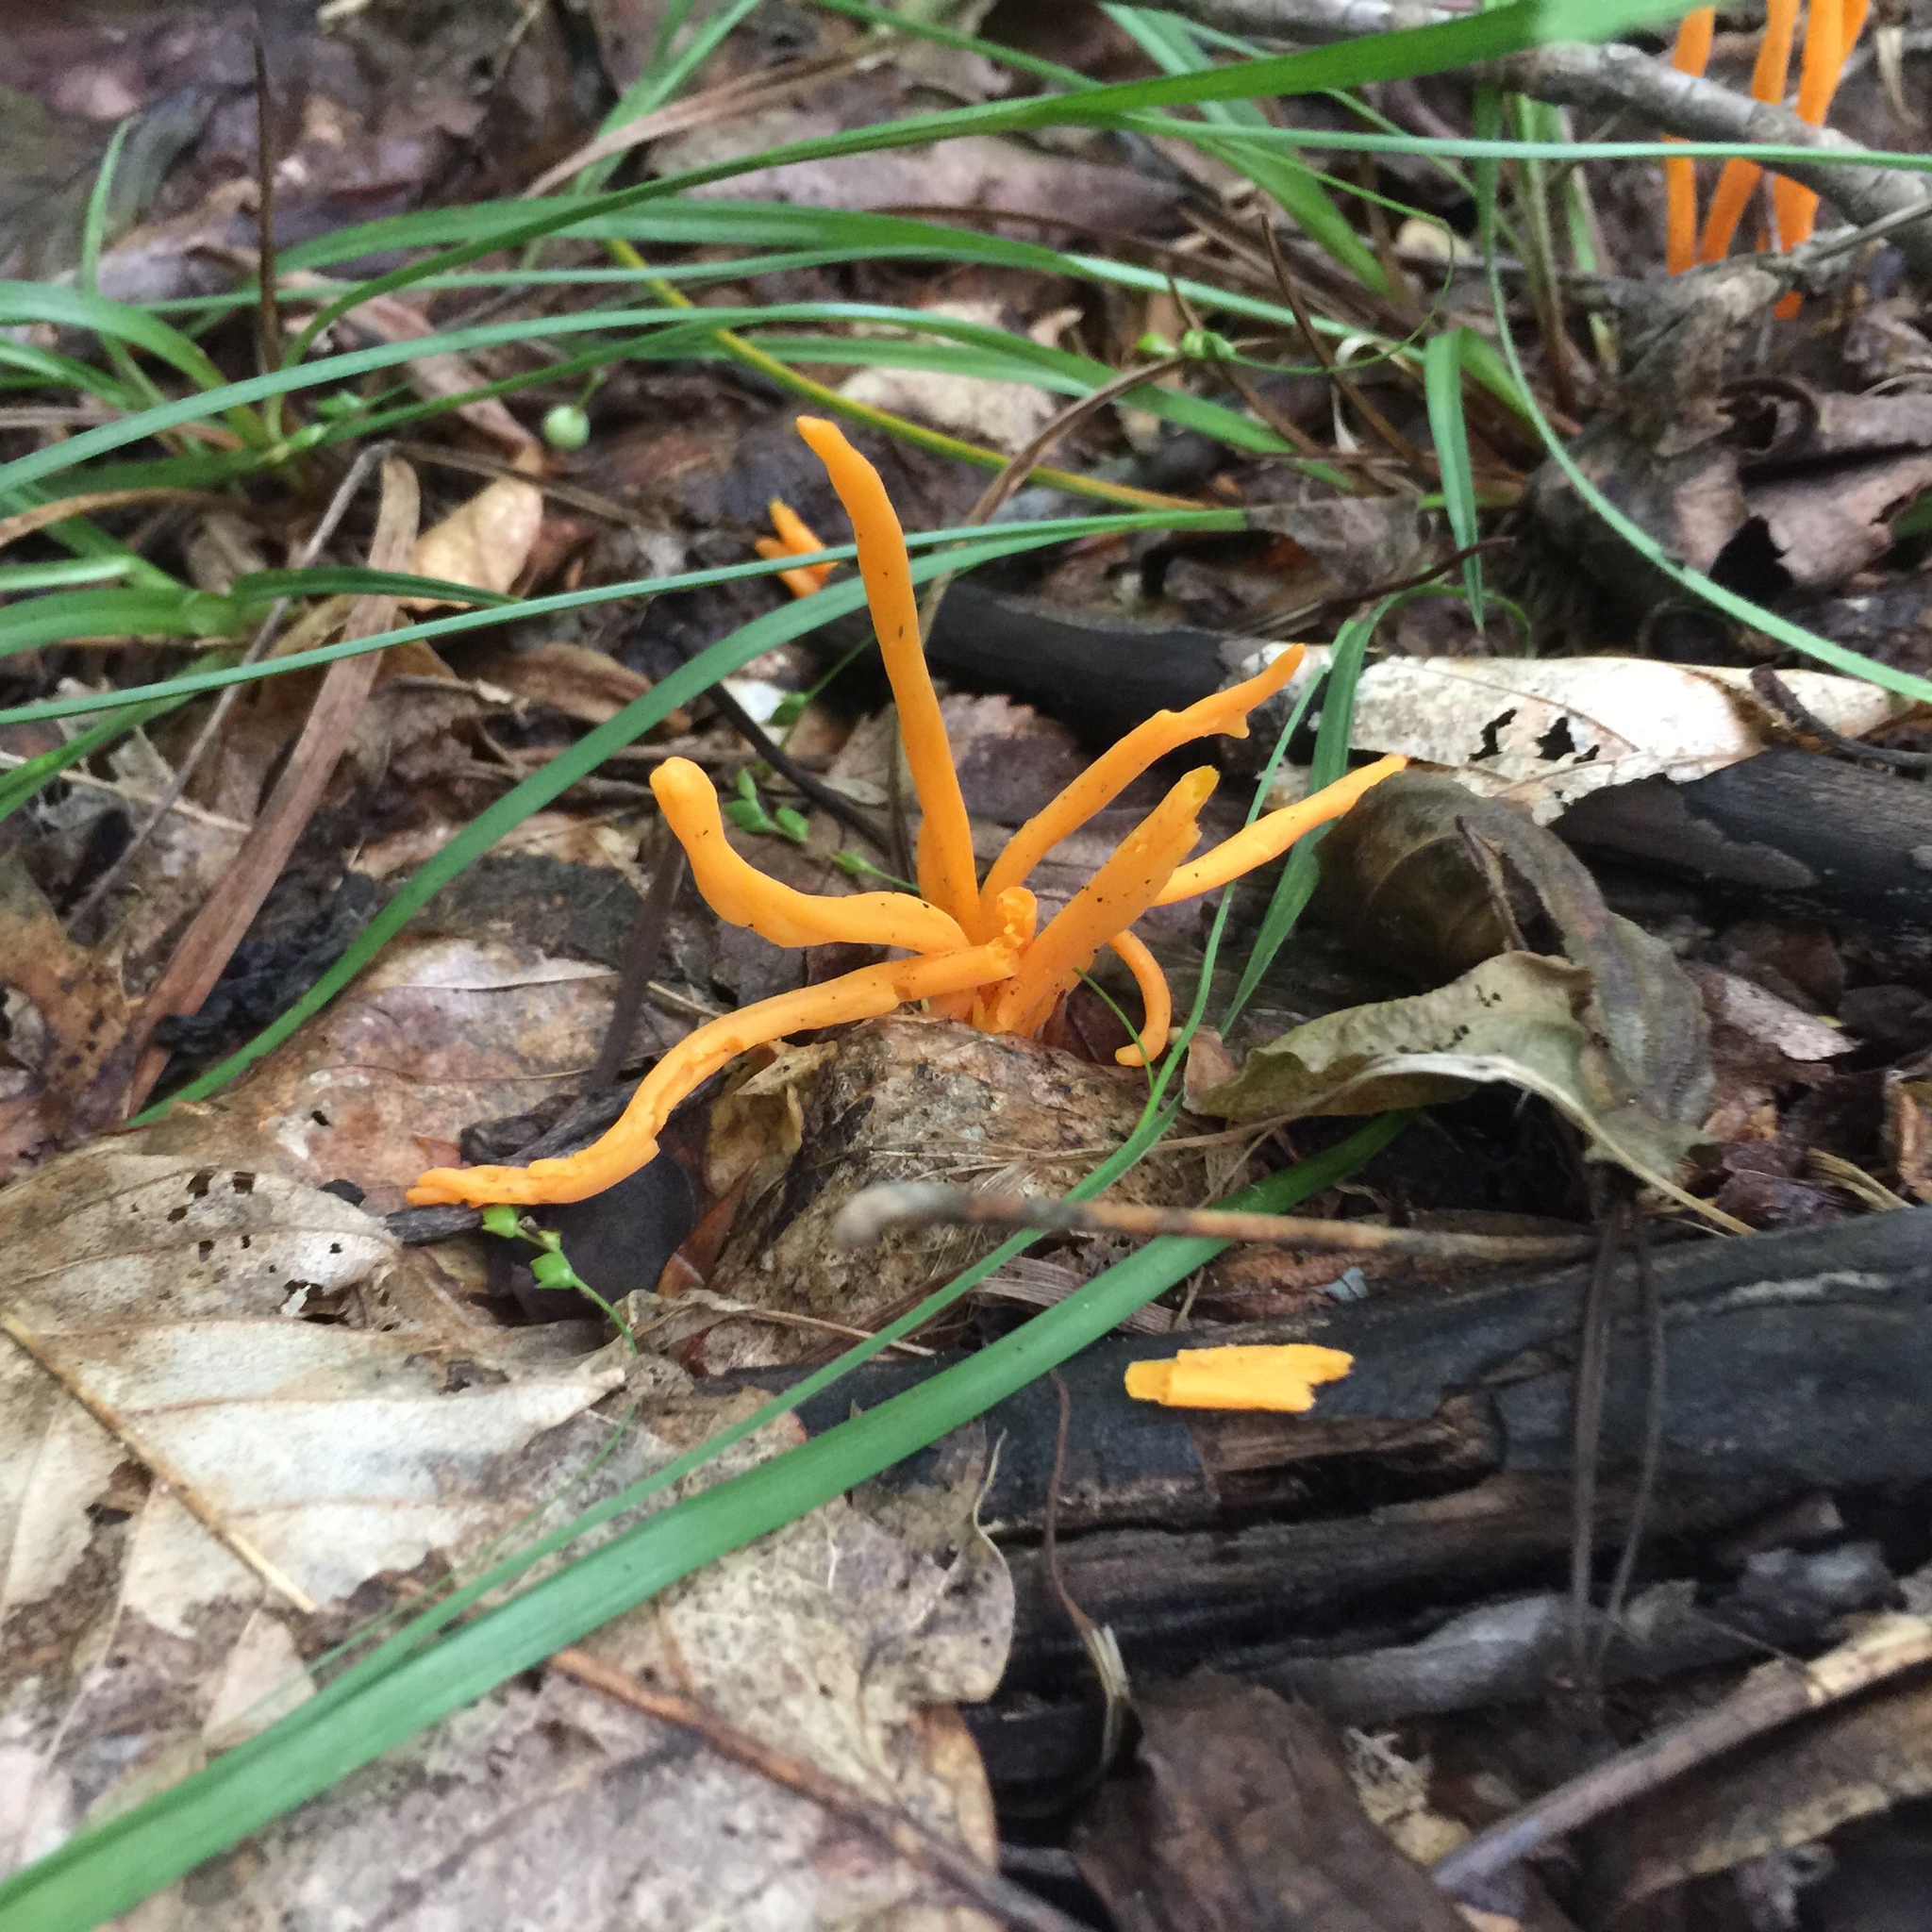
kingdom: Fungi
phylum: Basidiomycota
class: Agaricomycetes
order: Agaricales
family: Clavariaceae
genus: Clavulinopsis
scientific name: Clavulinopsis aurantiocinnabarina
